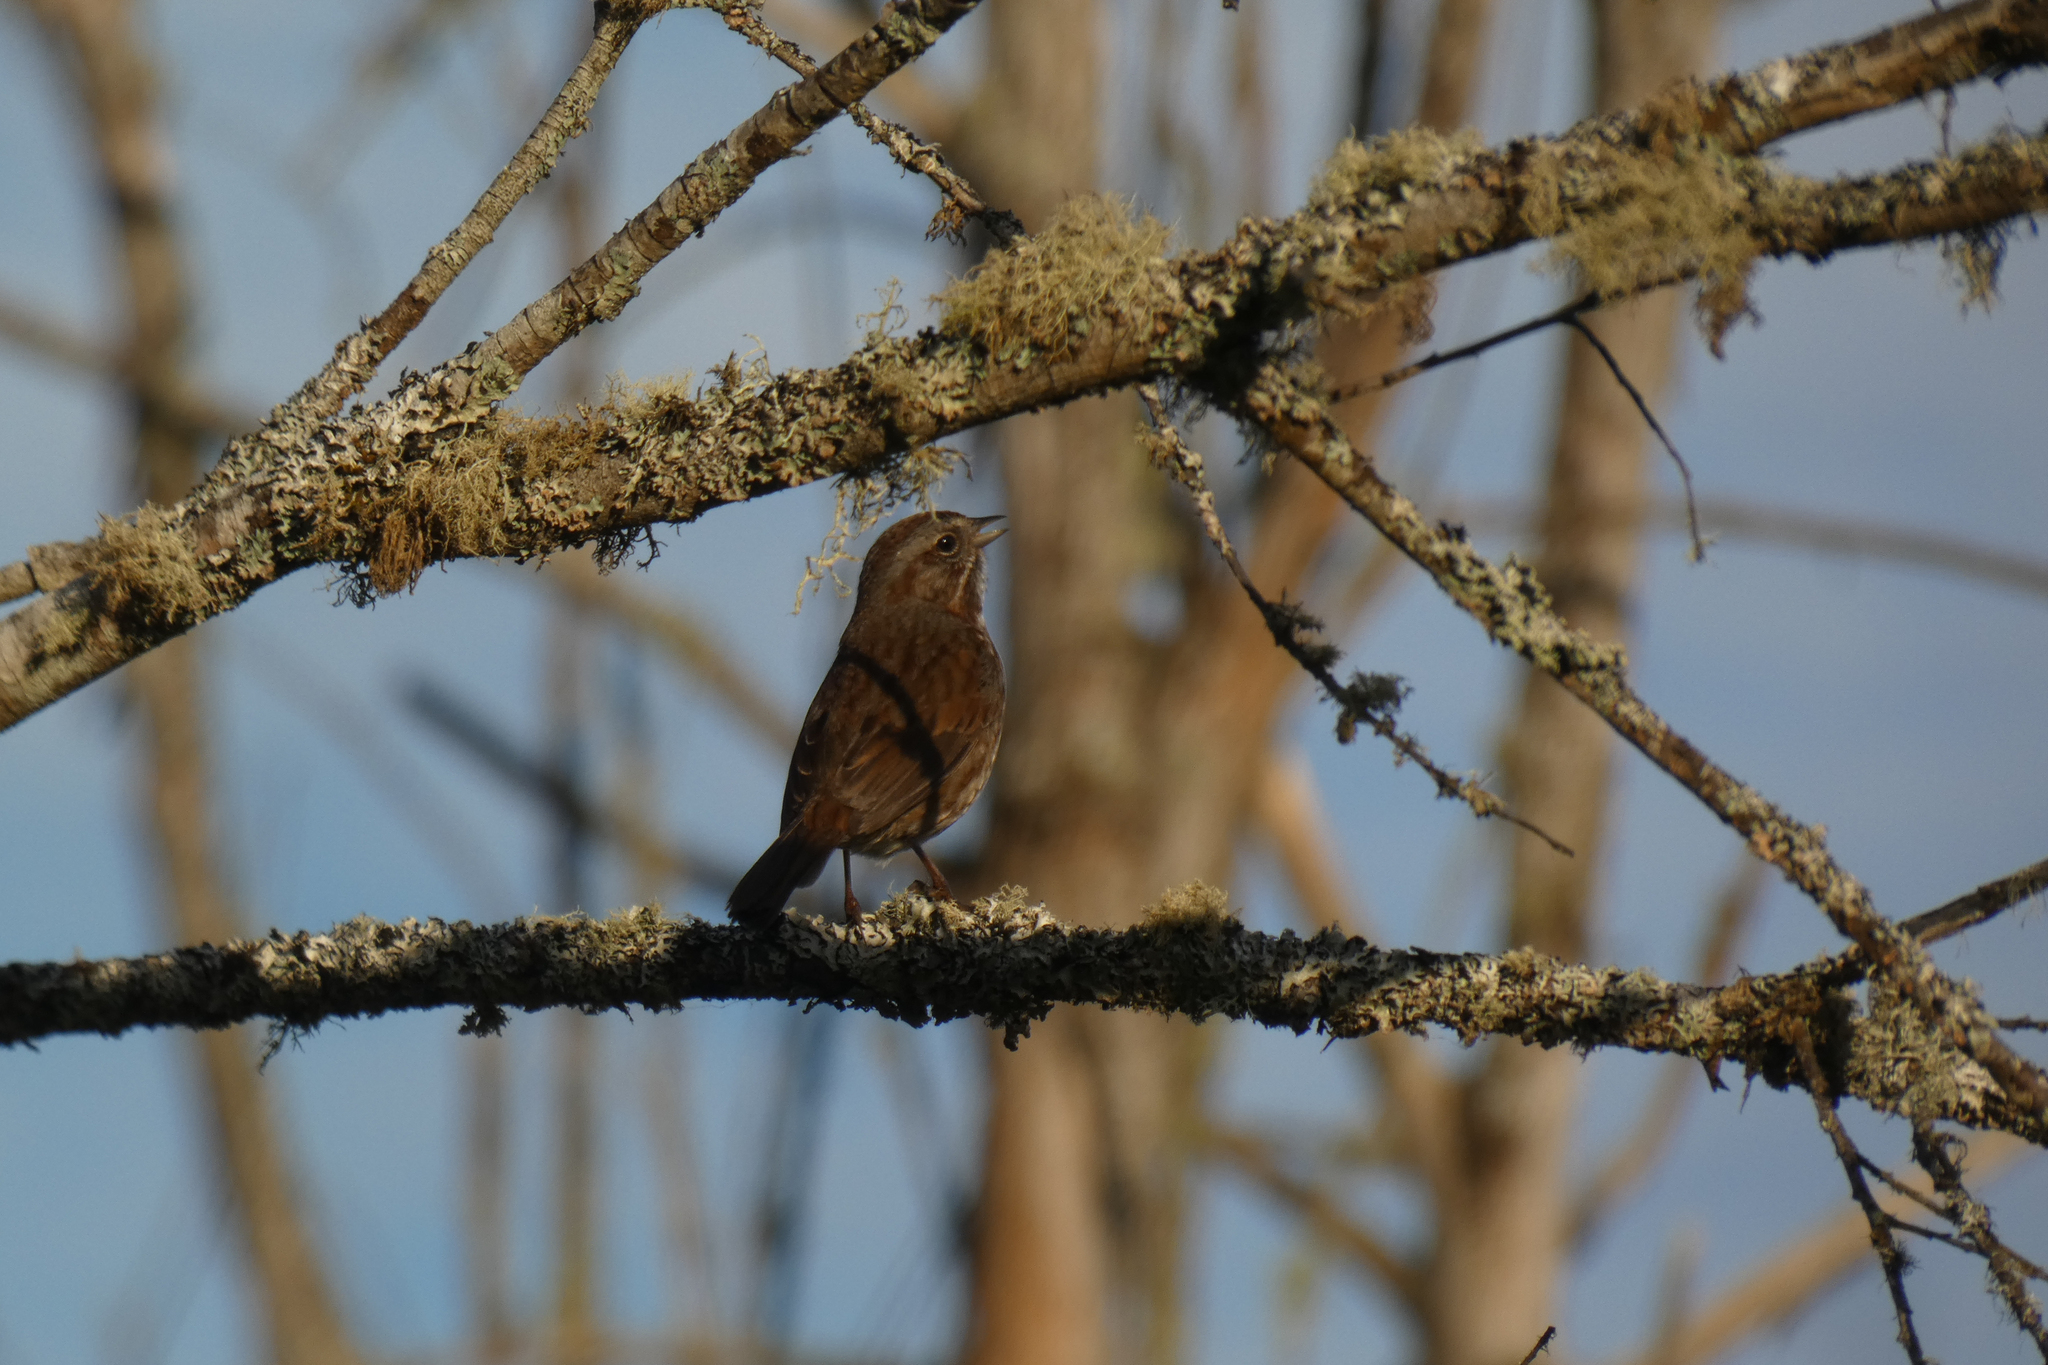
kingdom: Animalia
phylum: Chordata
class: Aves
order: Passeriformes
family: Passerellidae
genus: Melospiza
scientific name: Melospiza melodia
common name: Song sparrow
